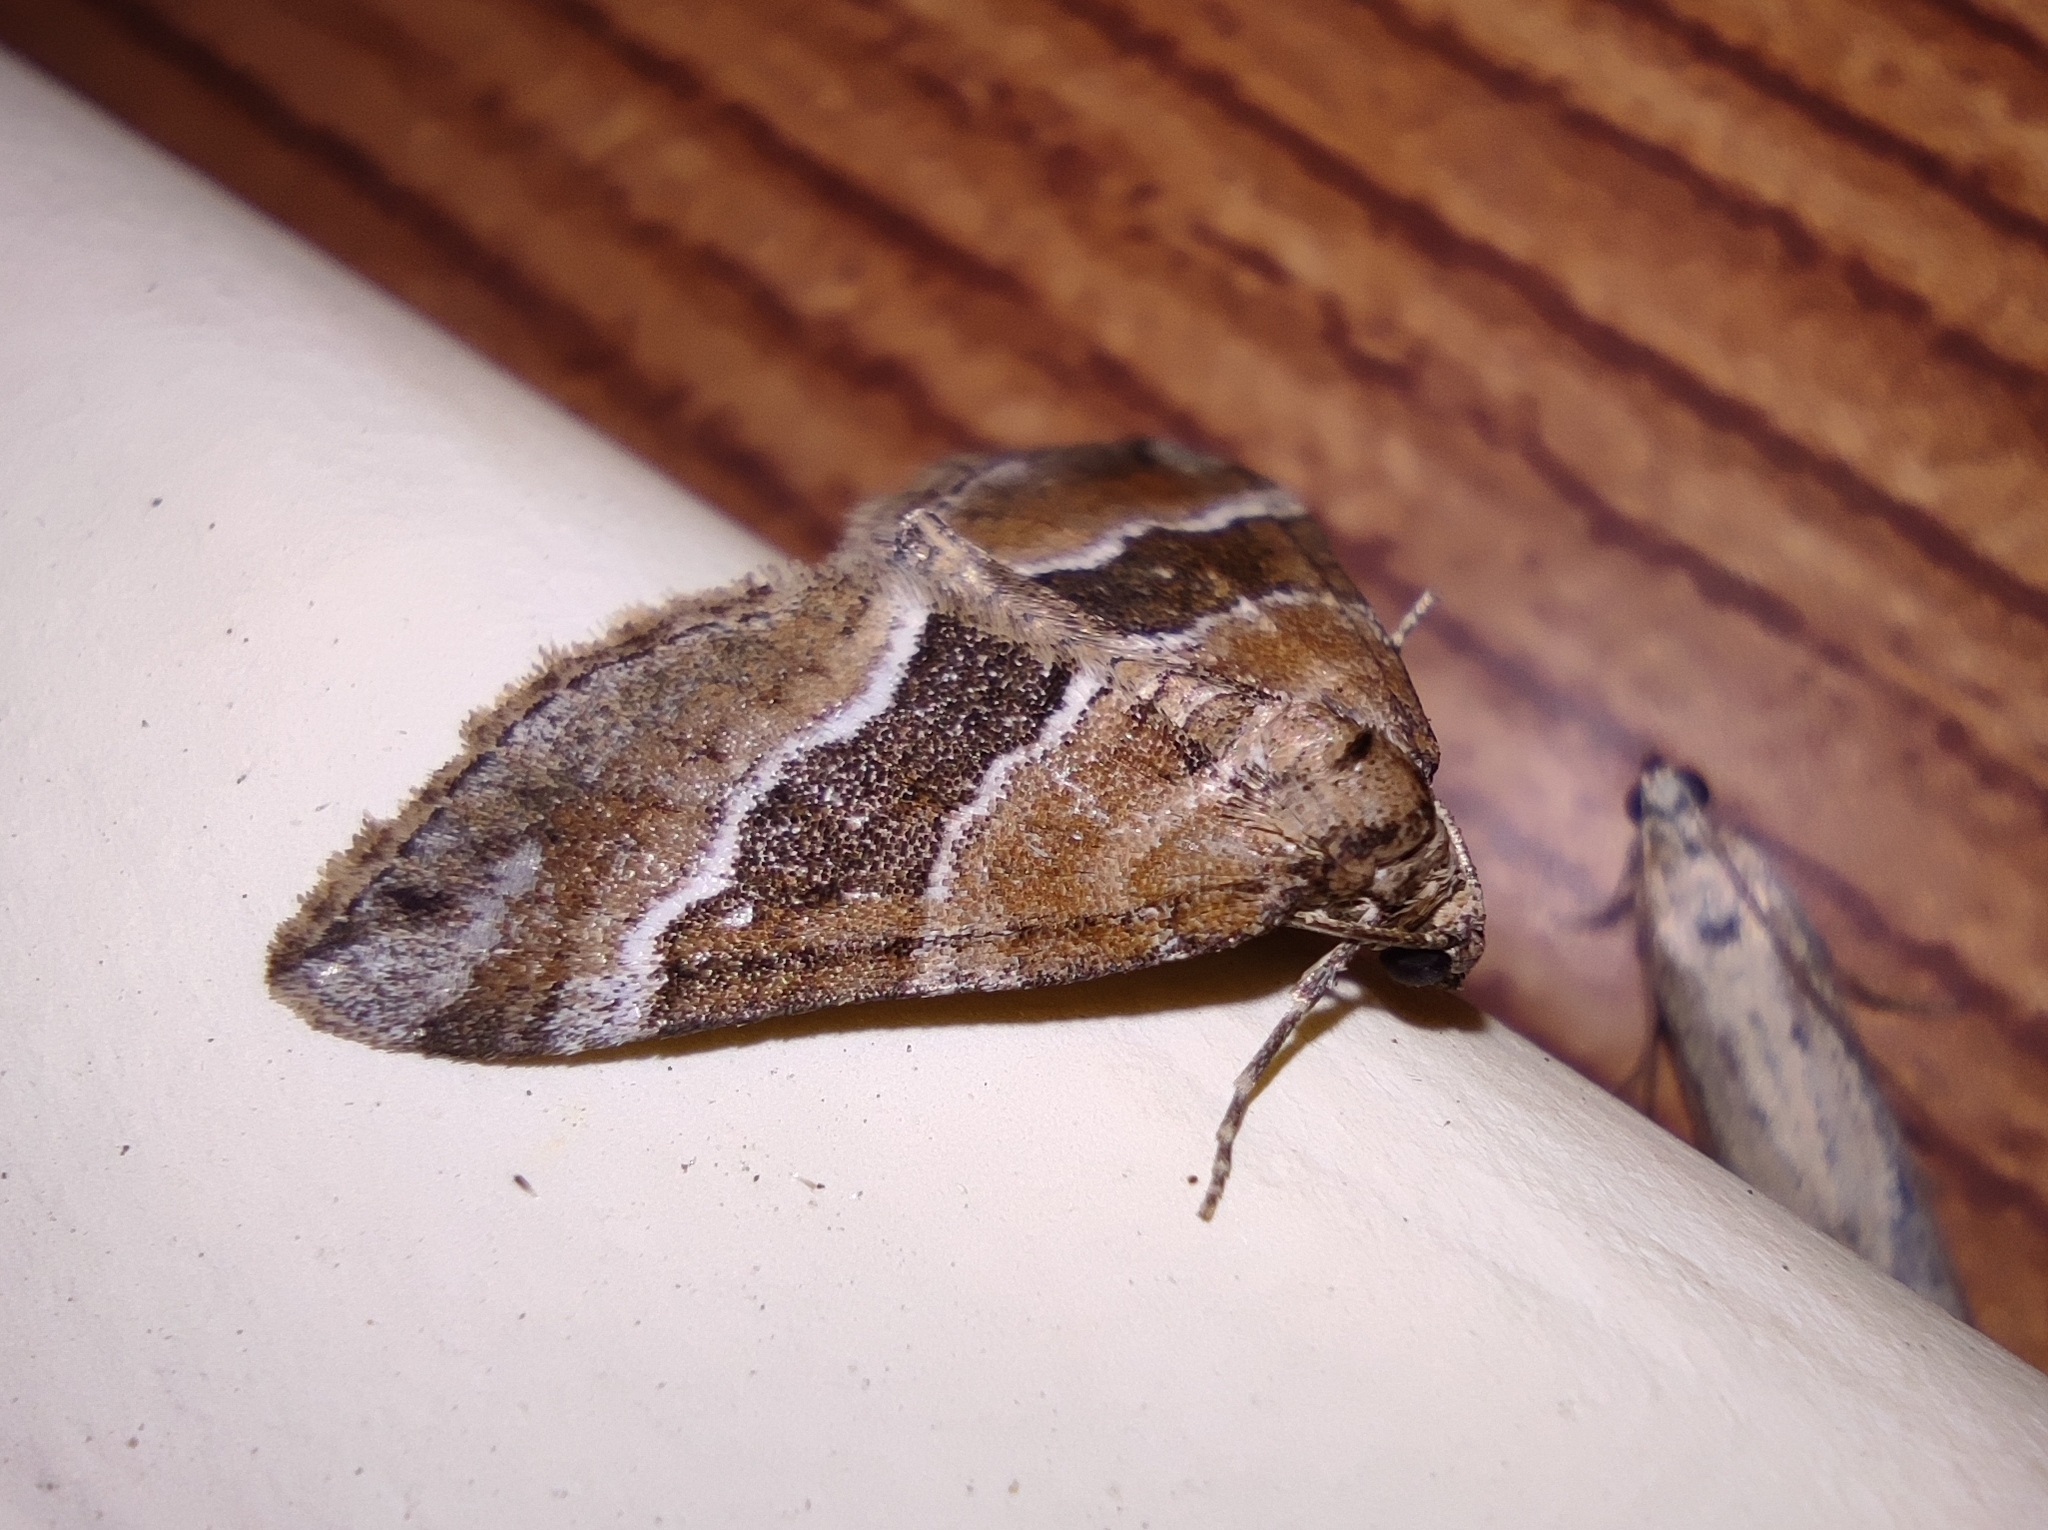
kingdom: Animalia
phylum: Arthropoda
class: Insecta
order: Lepidoptera
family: Geometridae
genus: Perizoma
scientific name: Perizoma bifaciata
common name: Barred rivulet
